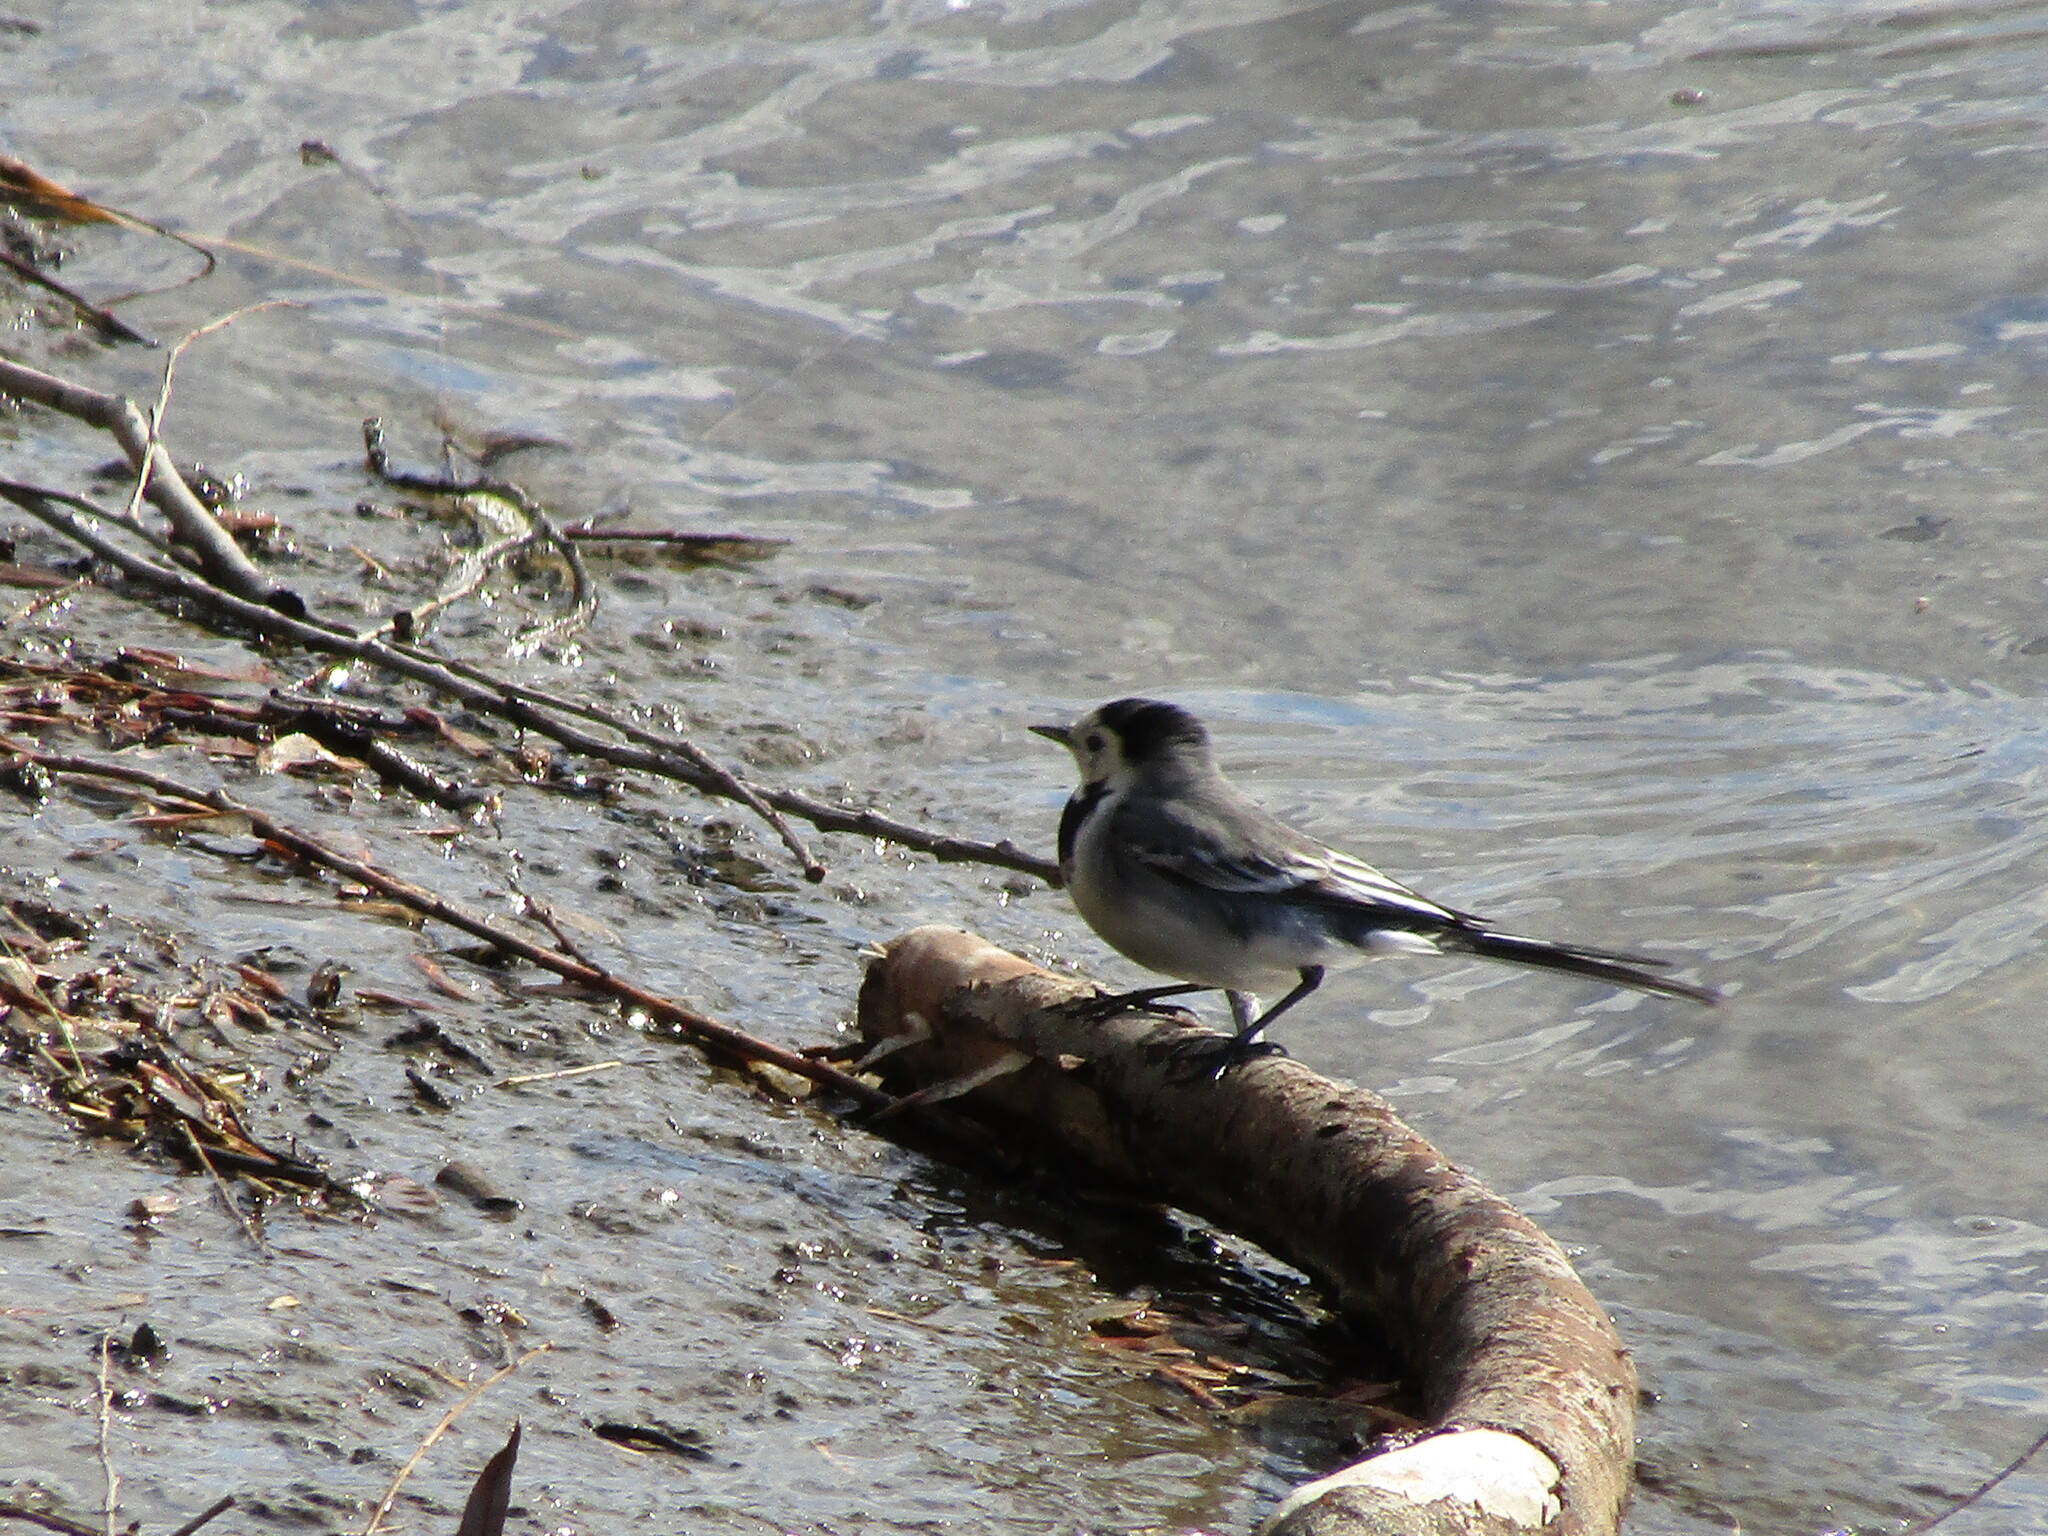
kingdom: Animalia
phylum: Chordata
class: Aves
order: Passeriformes
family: Motacillidae
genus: Motacilla
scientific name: Motacilla alba
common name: White wagtail
